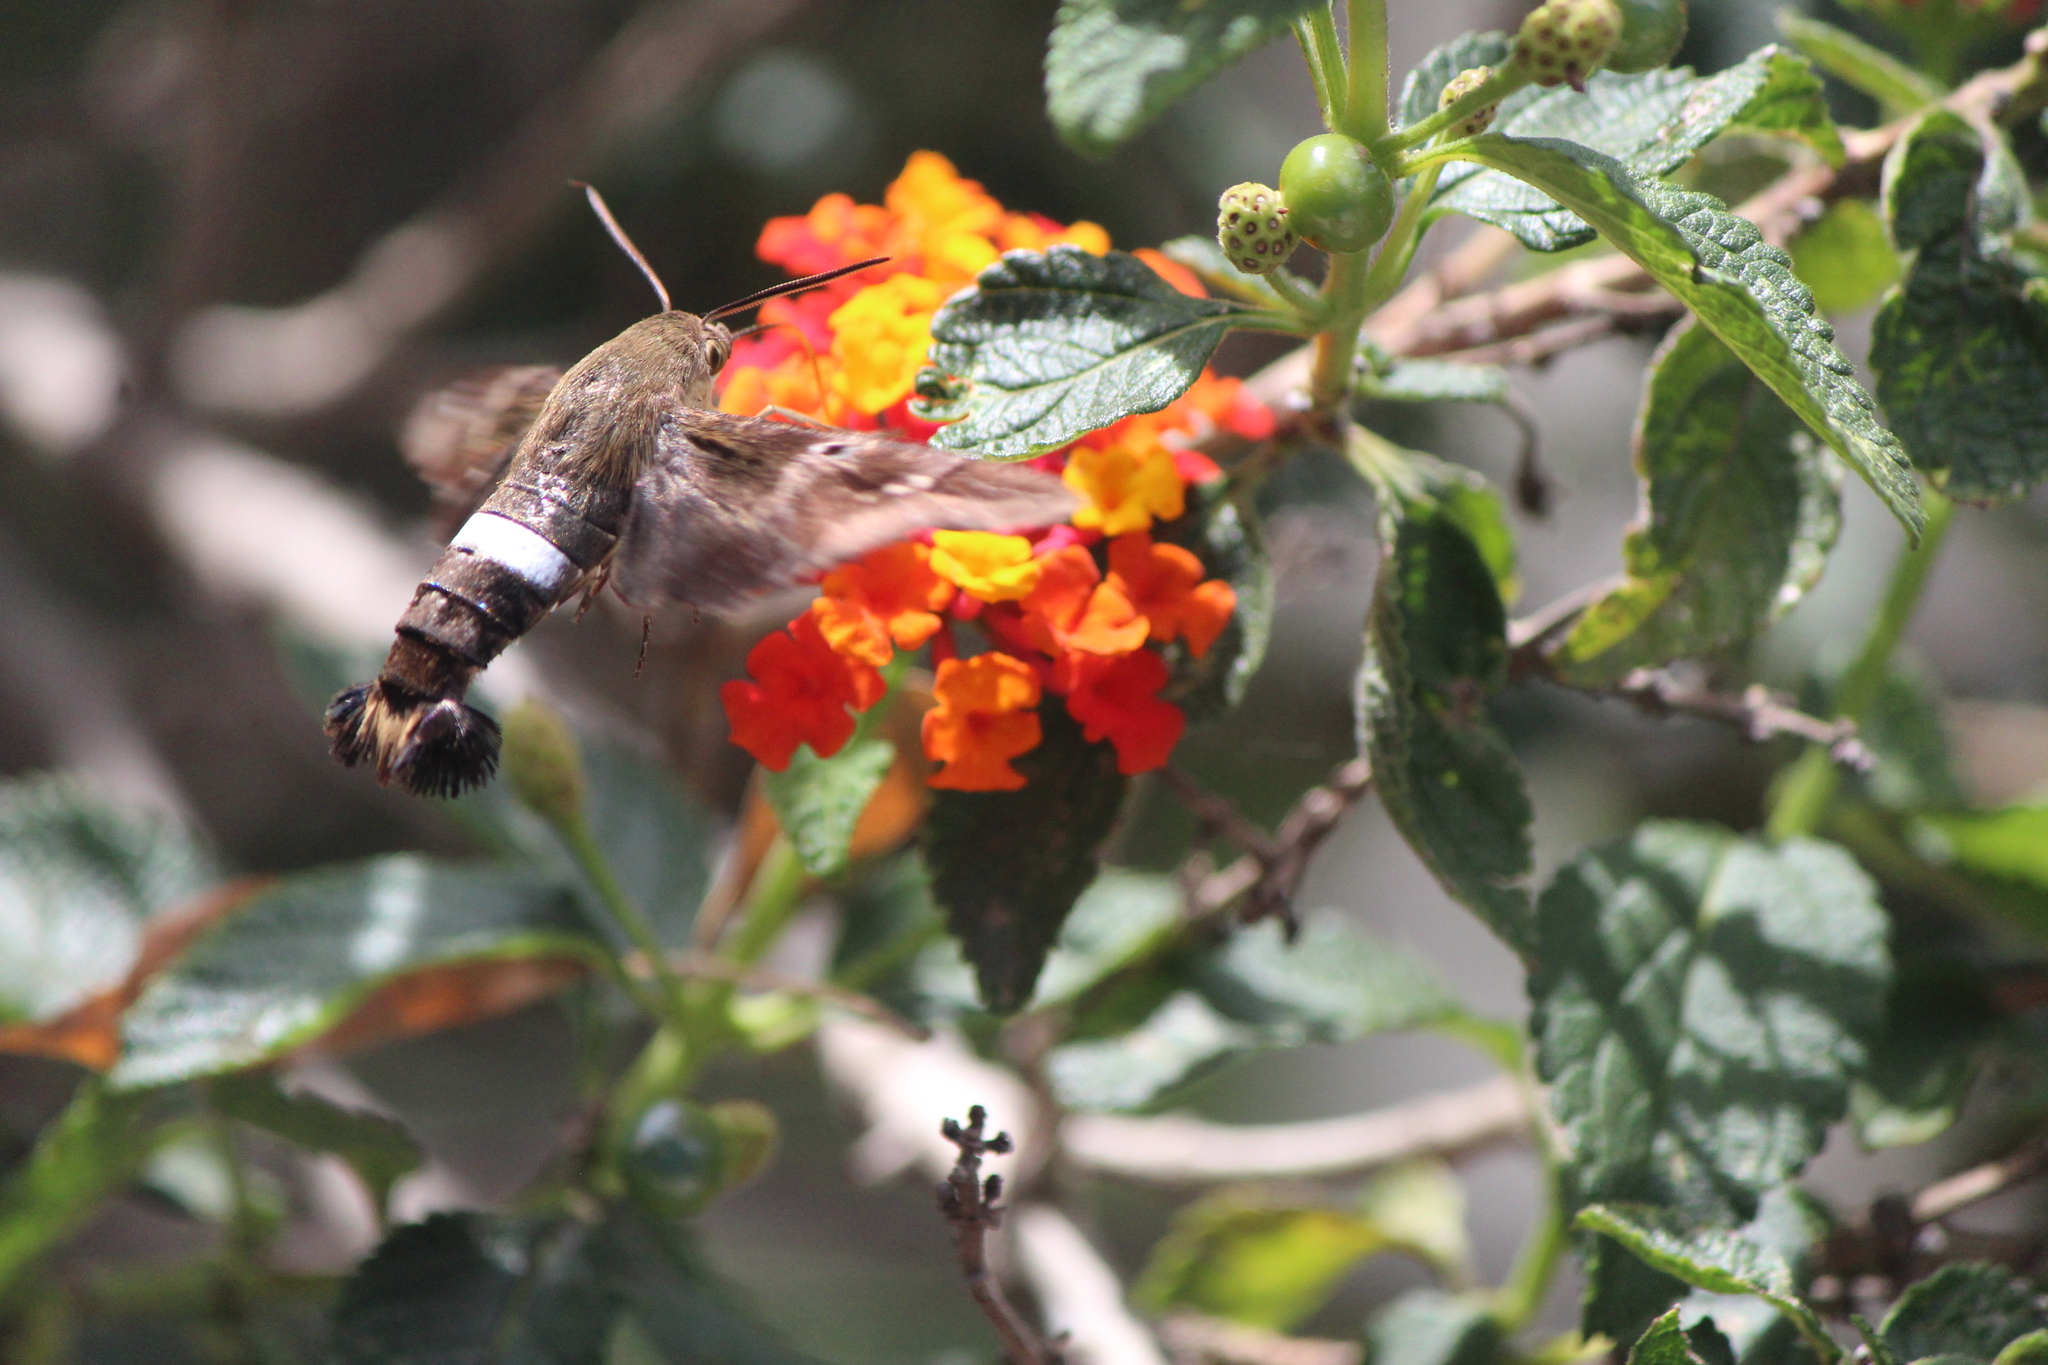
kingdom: Animalia
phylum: Arthropoda
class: Insecta
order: Lepidoptera
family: Sphingidae
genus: Aellopos
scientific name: Aellopos clavipes
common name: Clavipes sphinx
